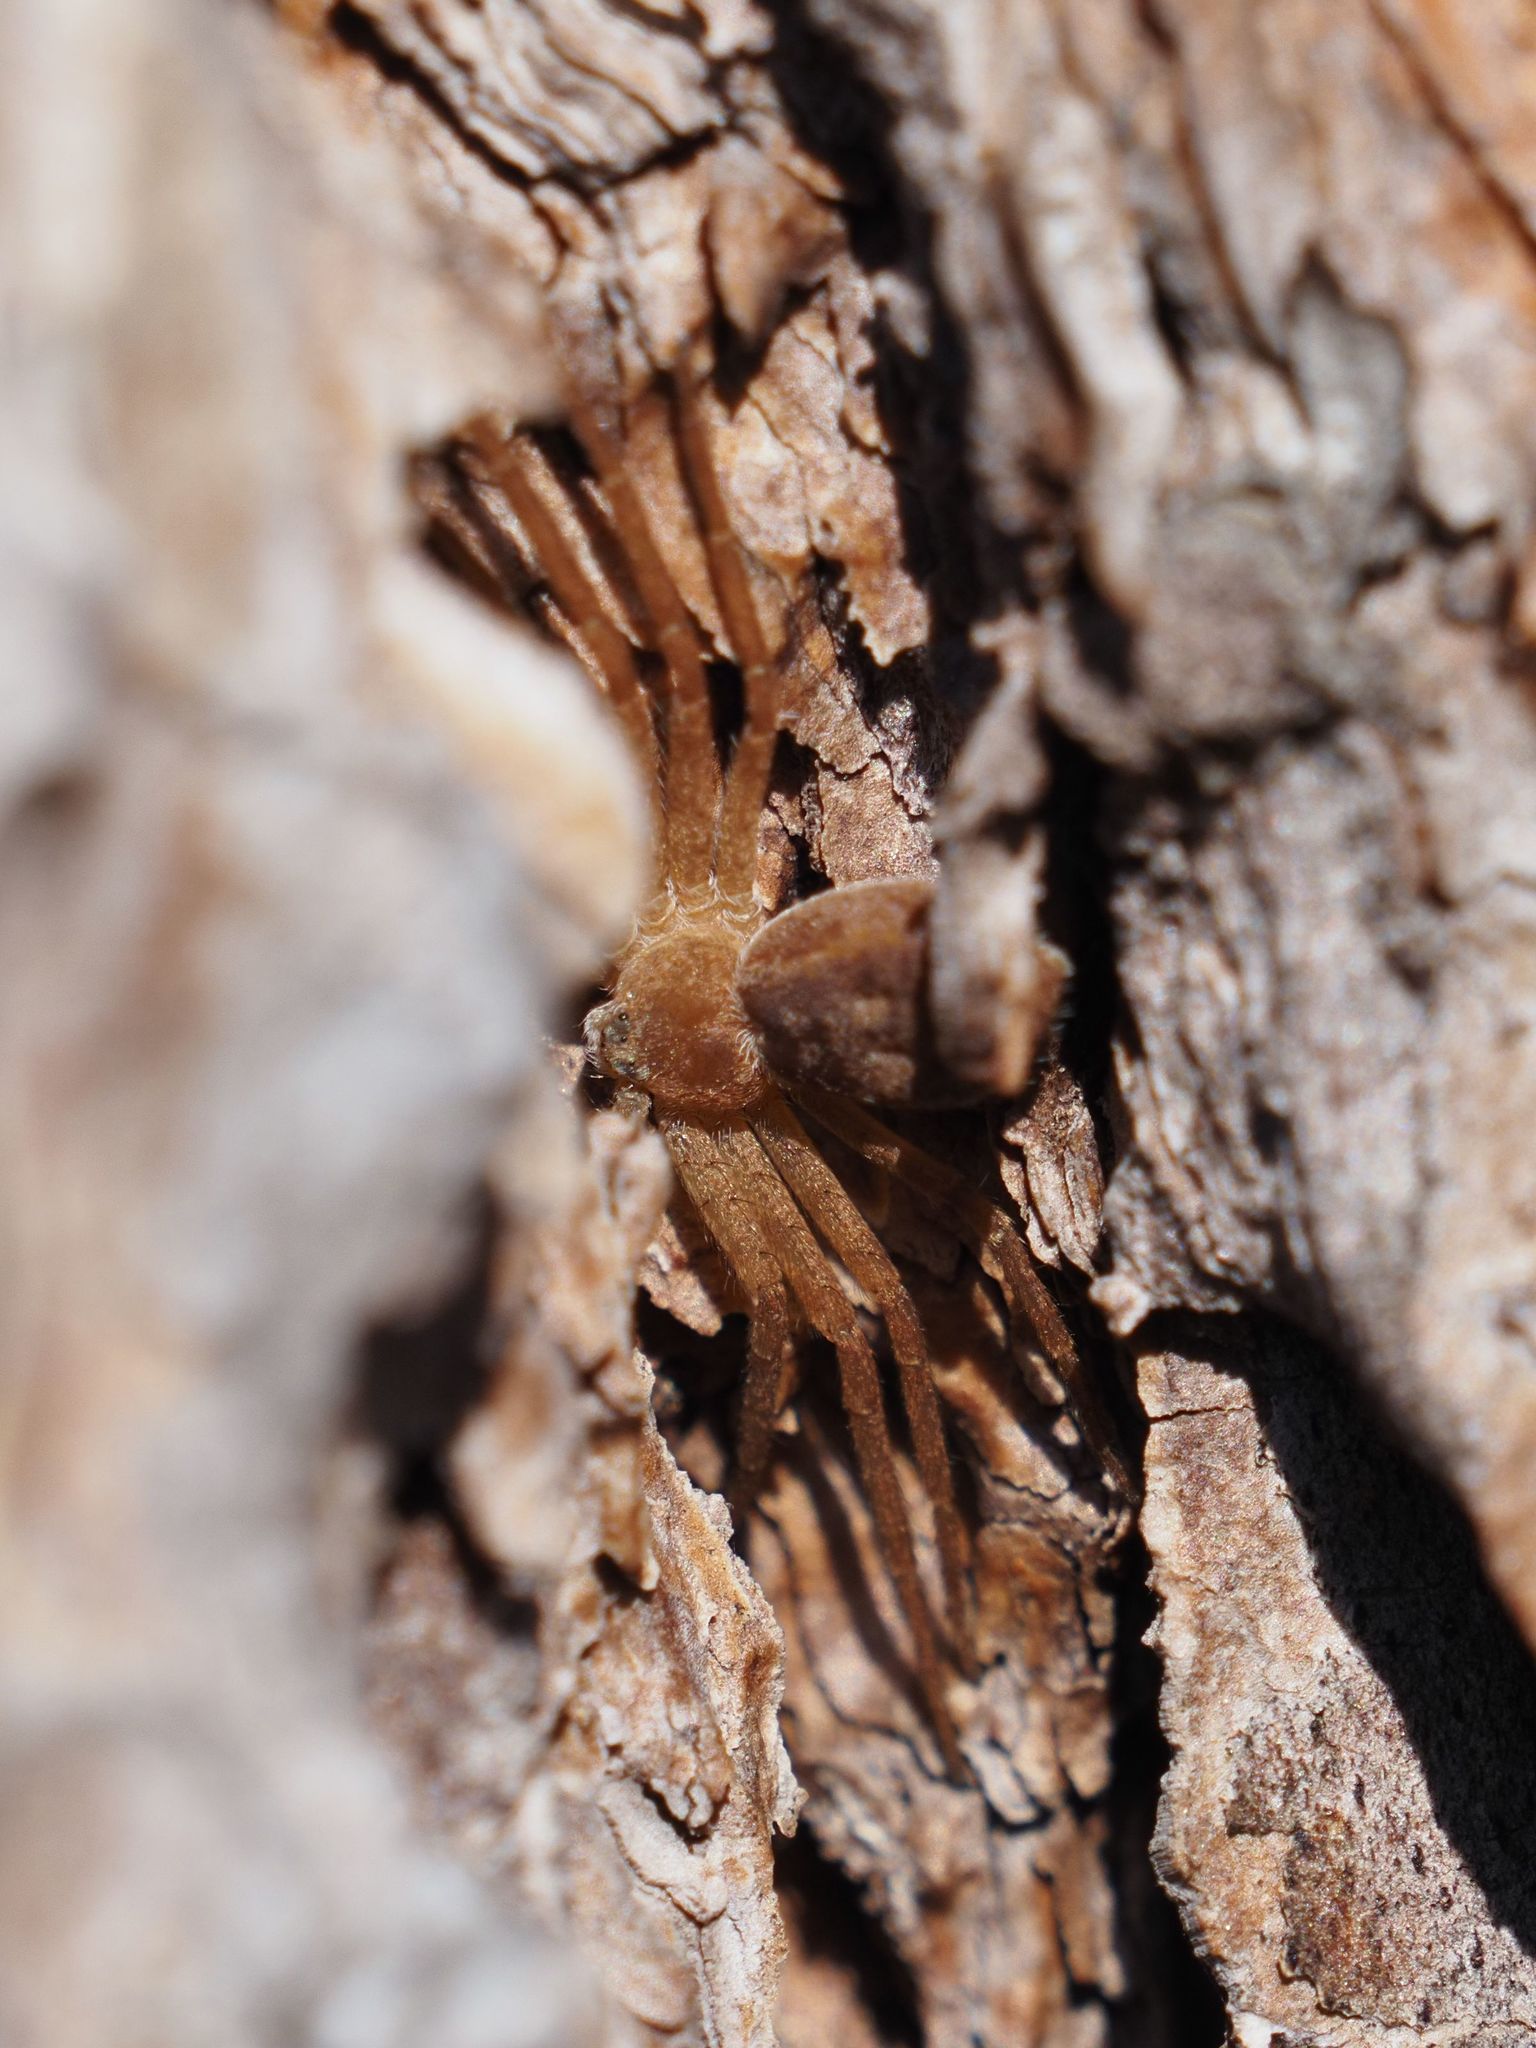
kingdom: Animalia
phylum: Arthropoda
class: Arachnida
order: Araneae
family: Philodromidae
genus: Philodromus
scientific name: Philodromus fuscomarginatus
